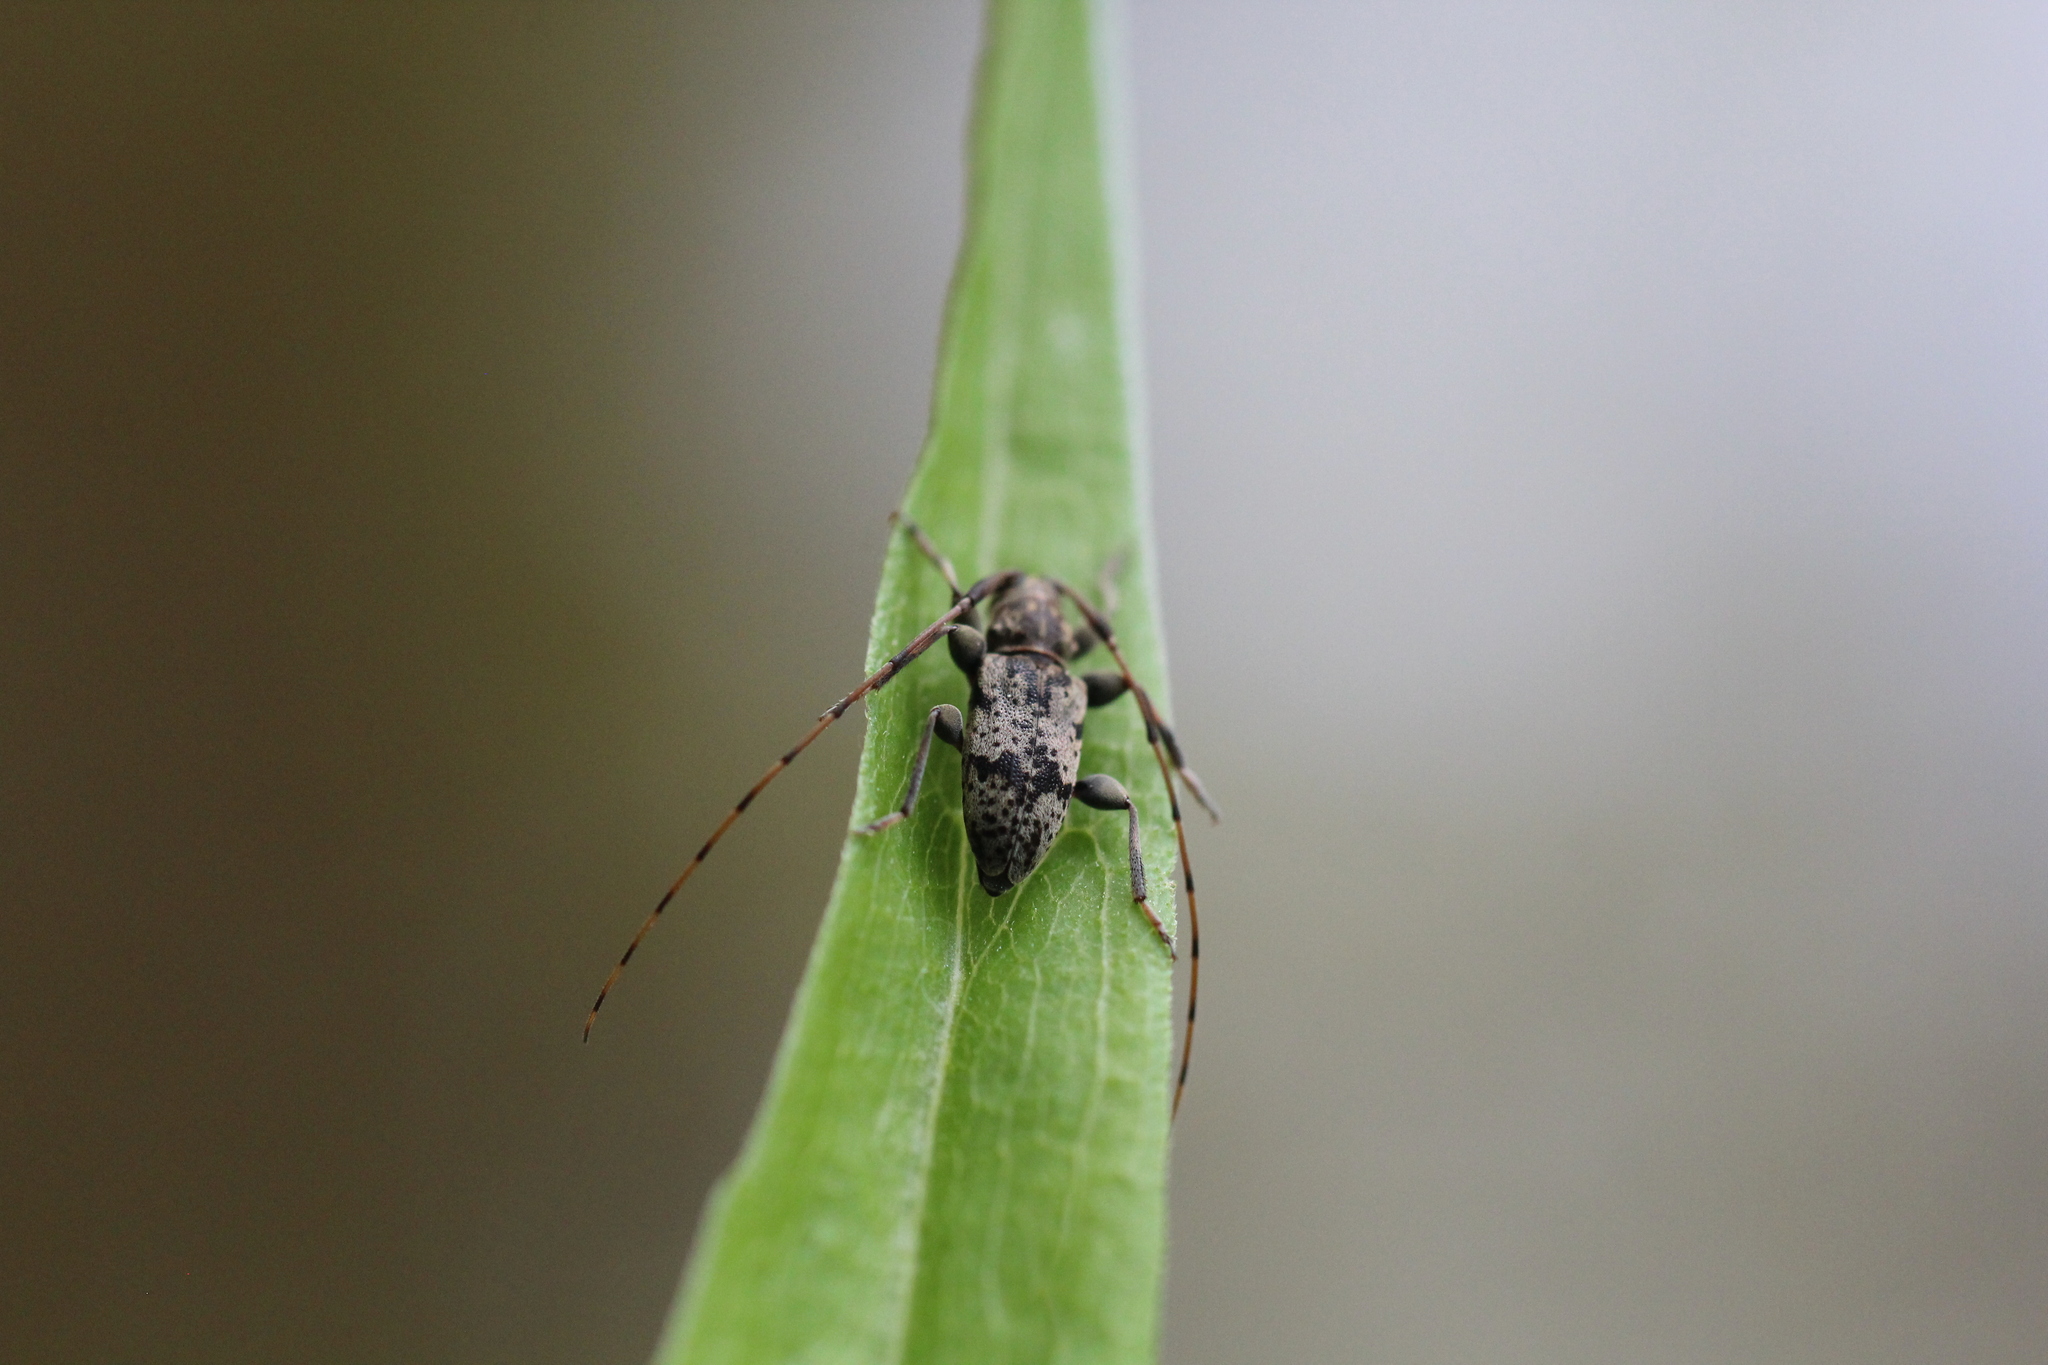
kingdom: Animalia
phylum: Arthropoda
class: Insecta
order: Coleoptera
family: Cerambycidae
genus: Leiopus
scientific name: Leiopus femoratus
